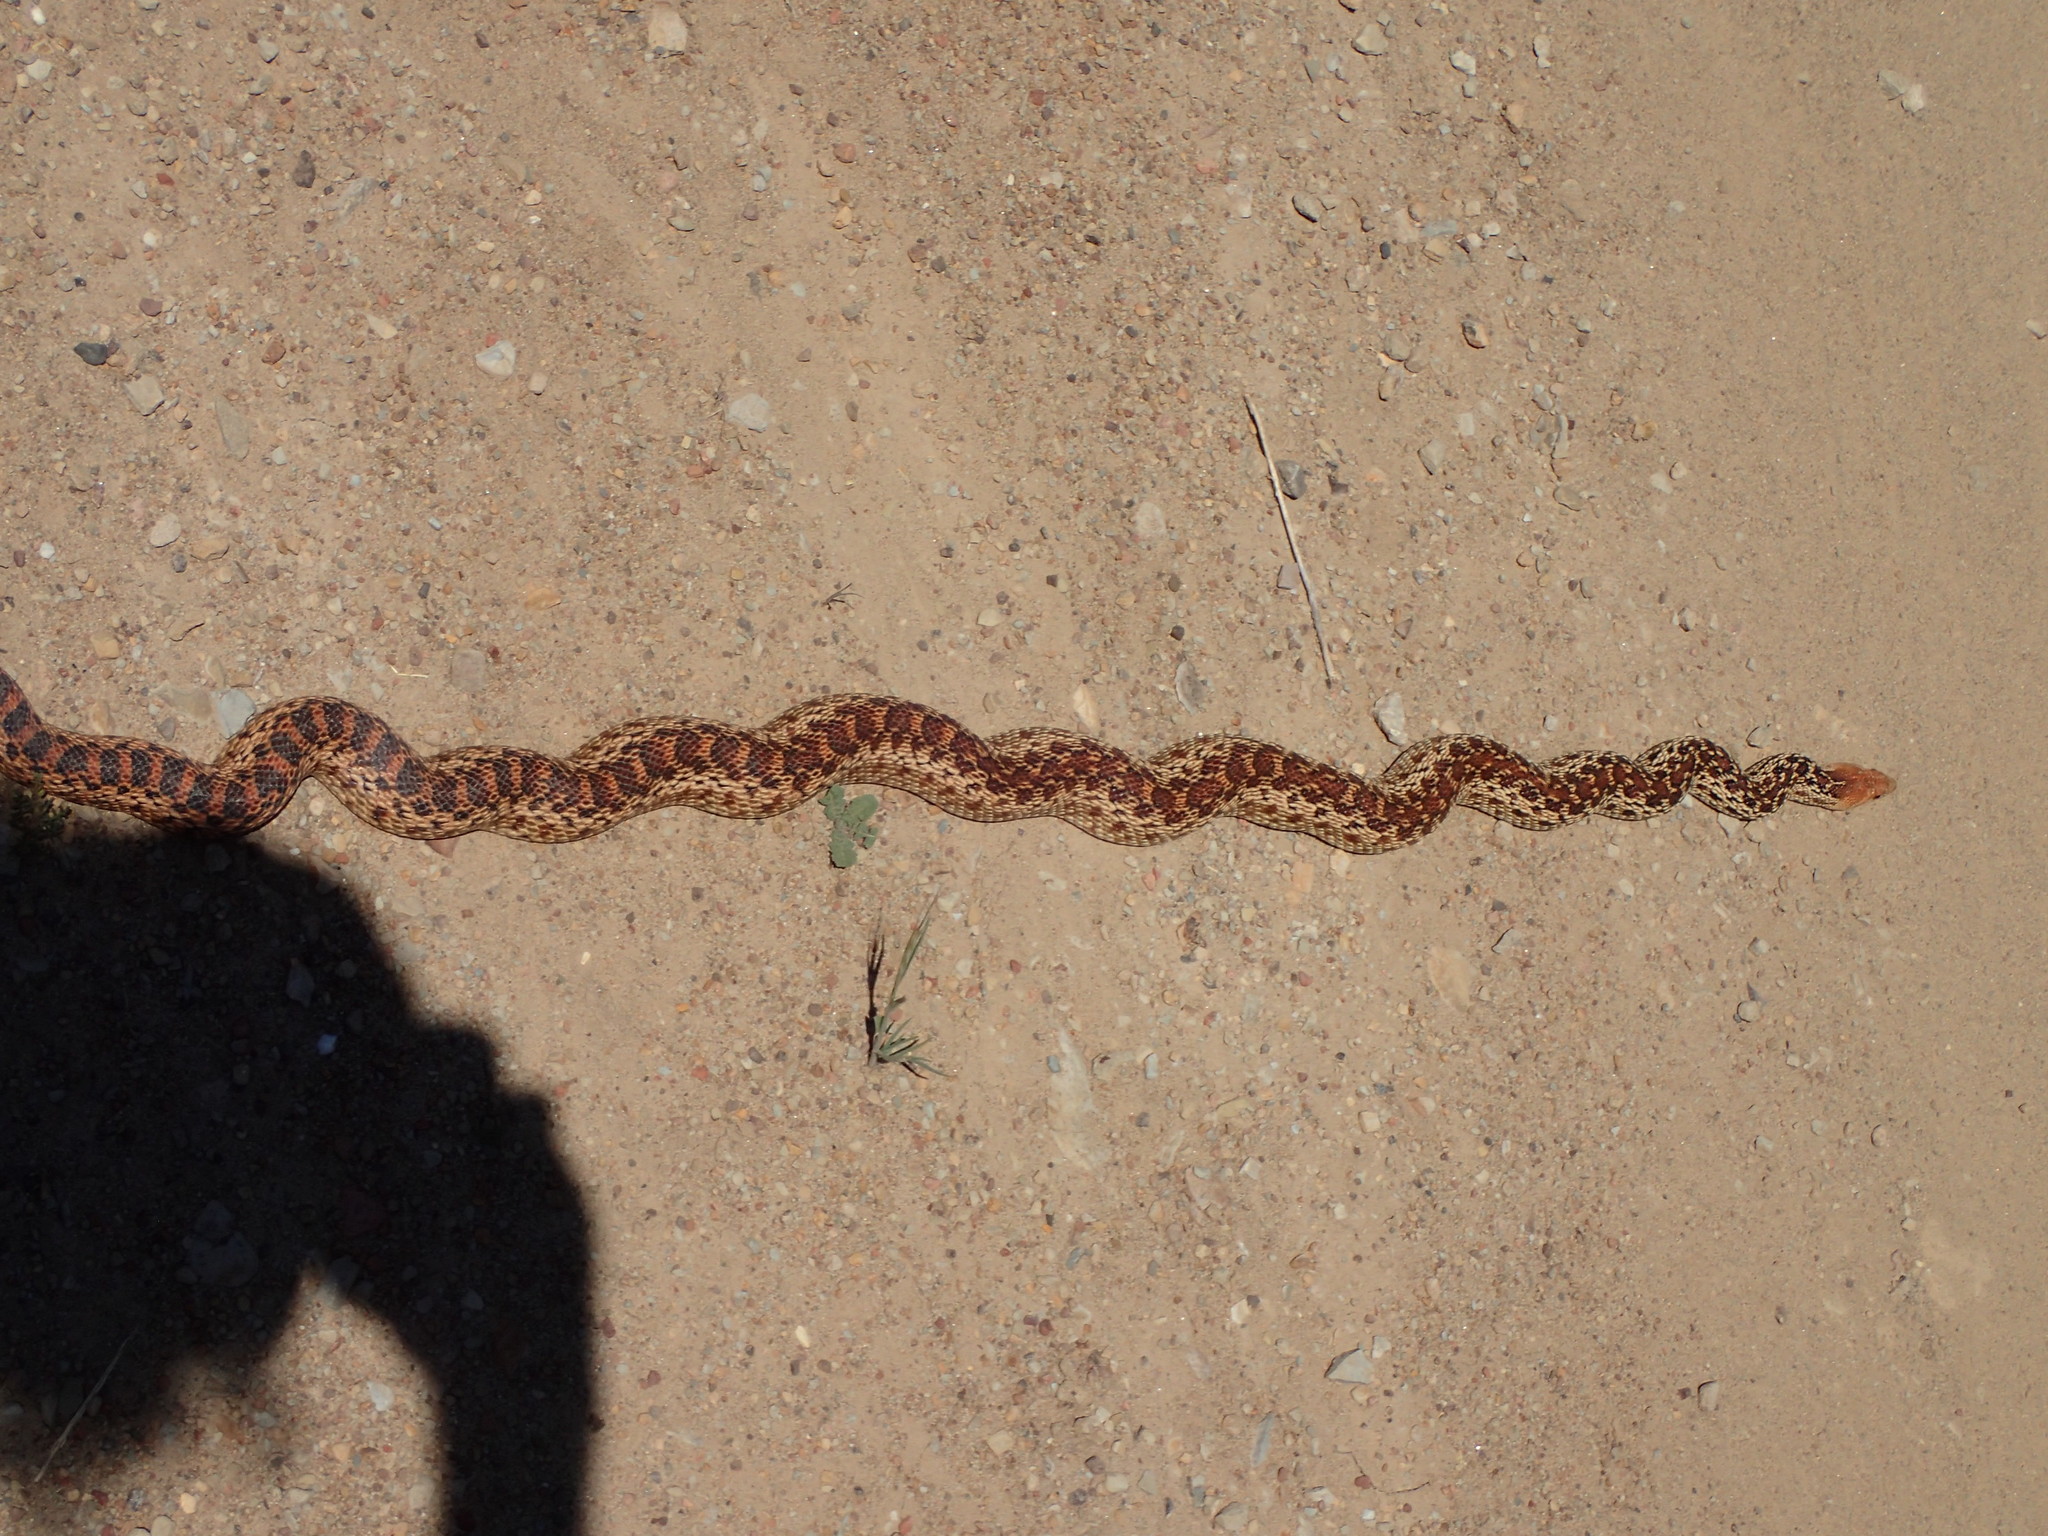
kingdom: Animalia
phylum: Chordata
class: Squamata
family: Colubridae
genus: Pituophis
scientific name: Pituophis catenifer
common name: Gopher snake
